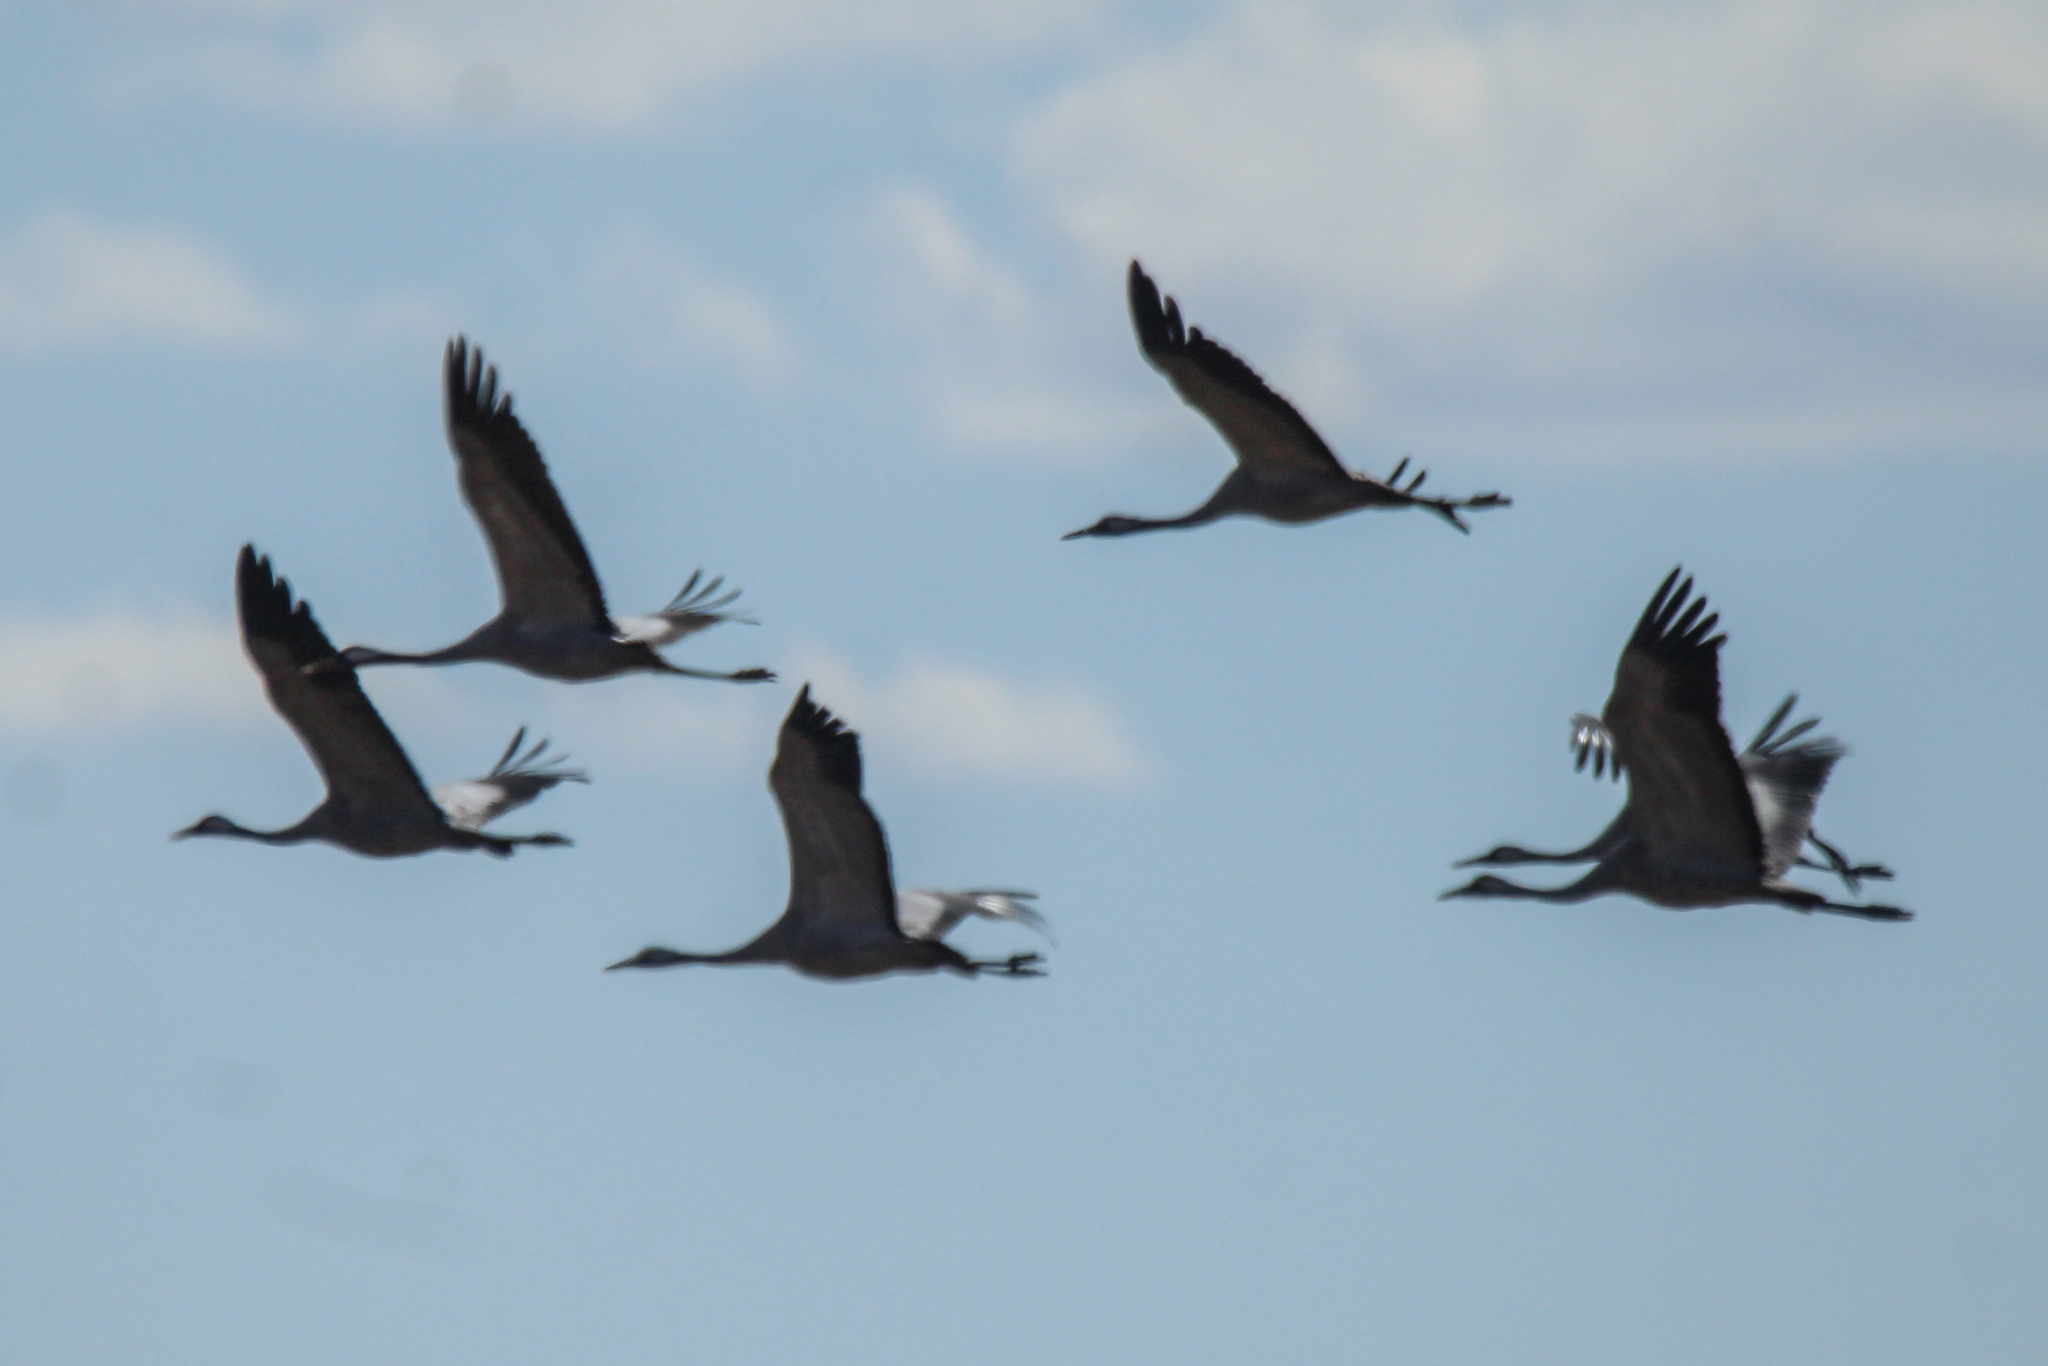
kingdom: Animalia
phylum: Chordata
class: Aves
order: Gruiformes
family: Gruidae
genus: Grus
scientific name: Grus grus
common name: Common crane
